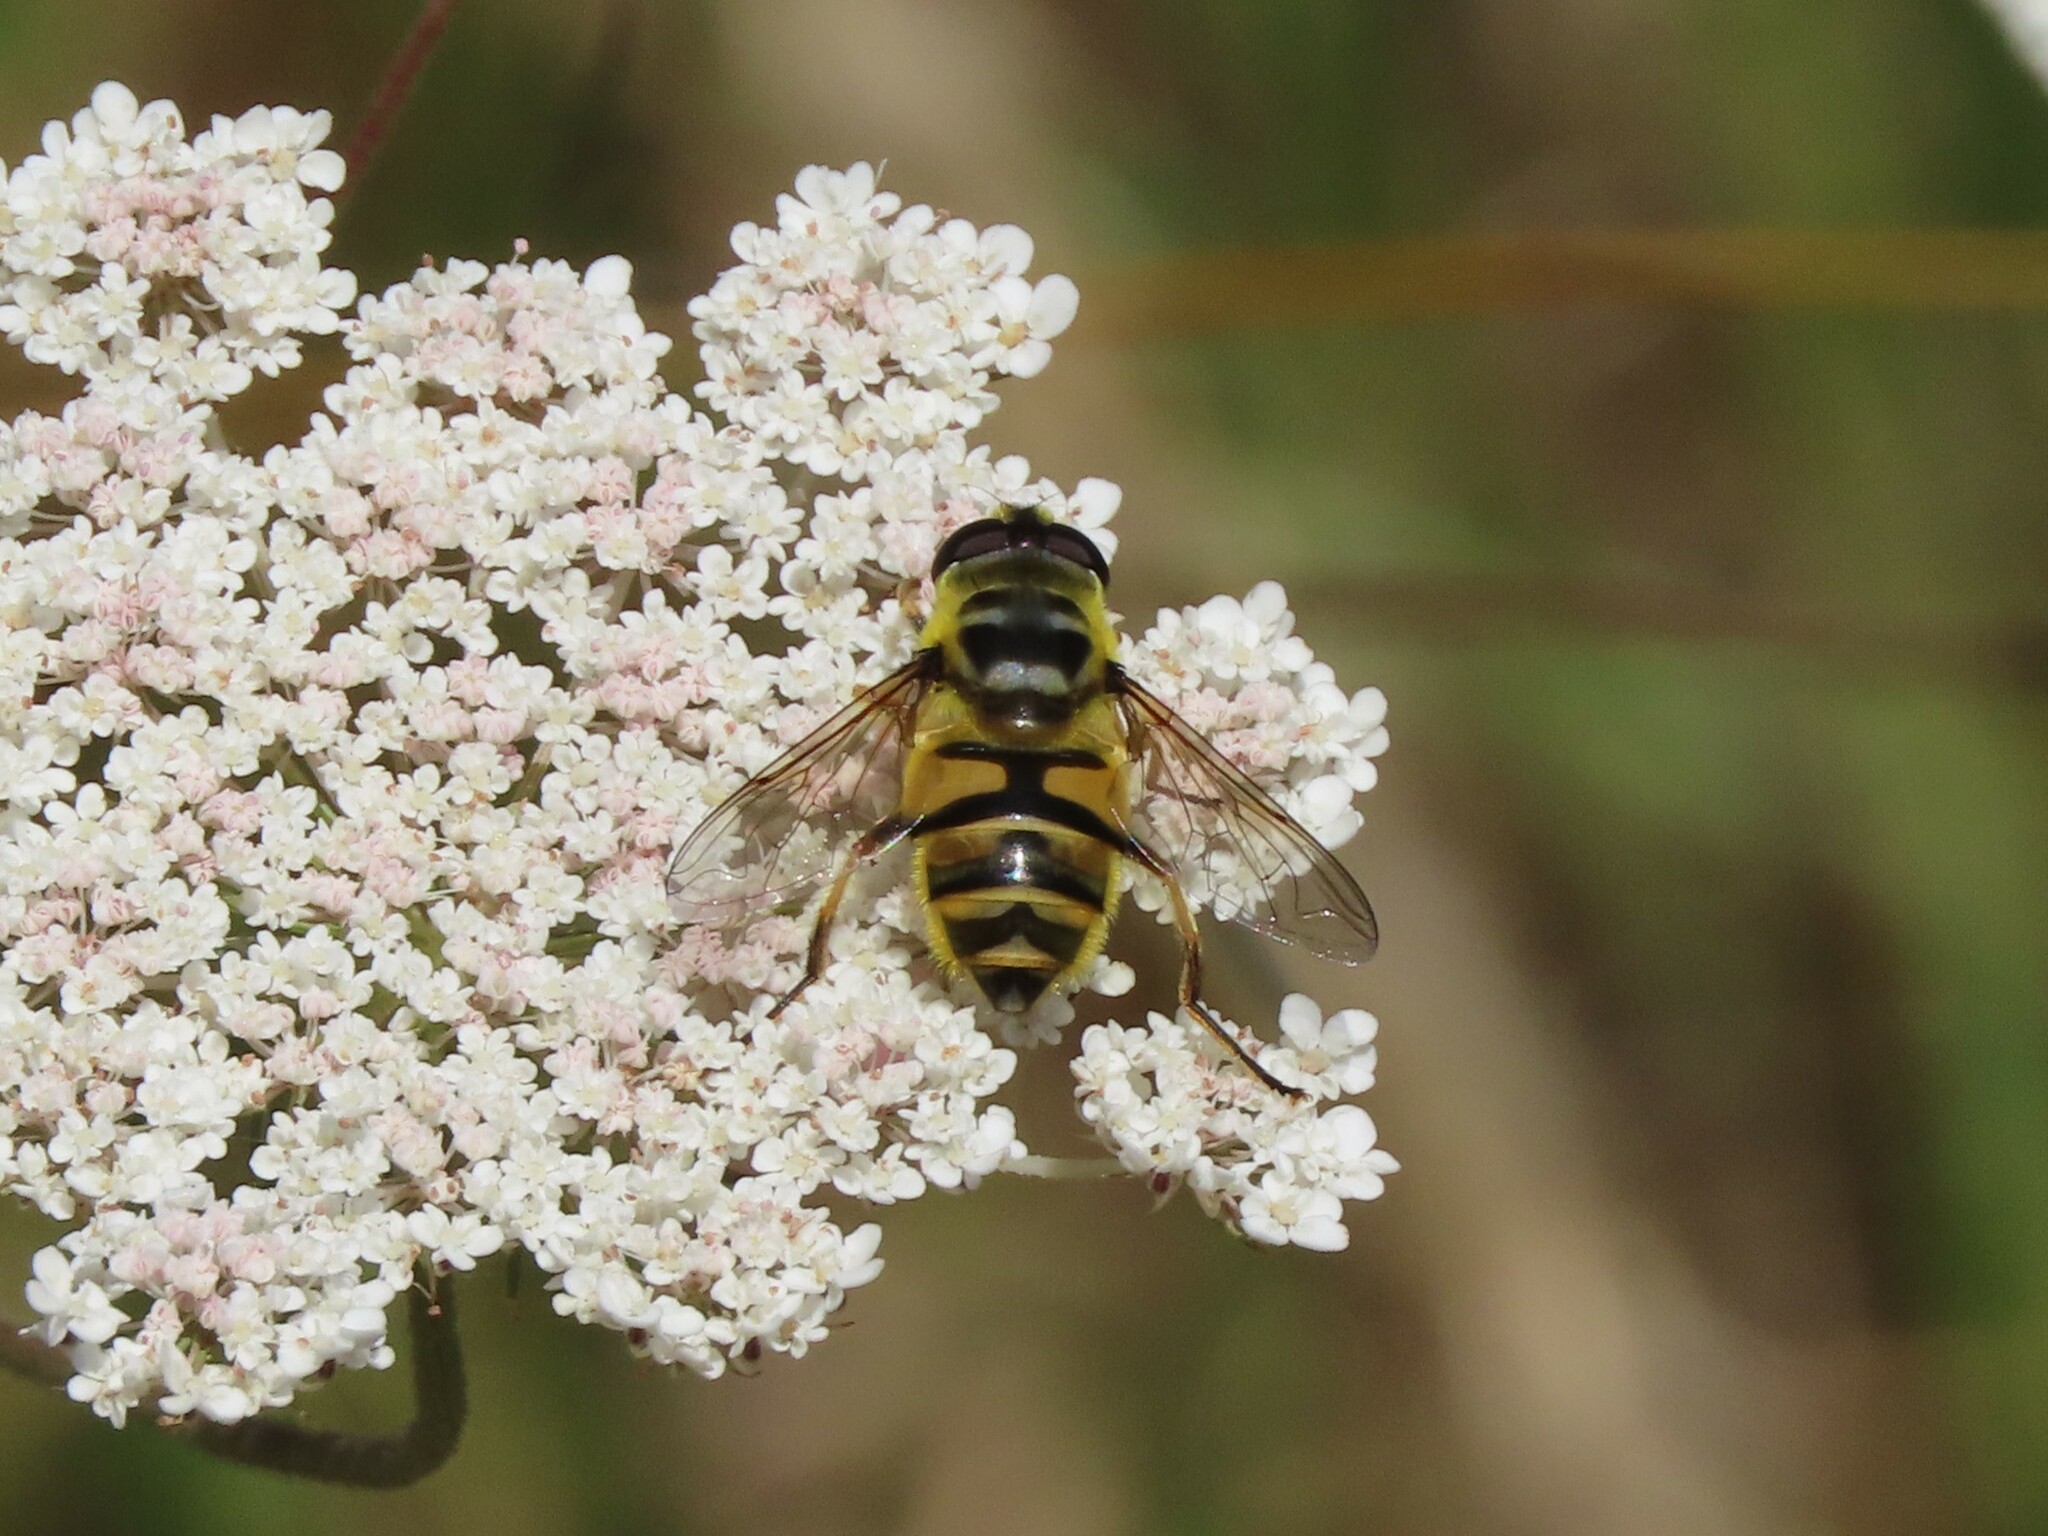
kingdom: Animalia
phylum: Arthropoda
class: Insecta
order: Diptera
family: Syrphidae
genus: Myathropa
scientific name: Myathropa florea
